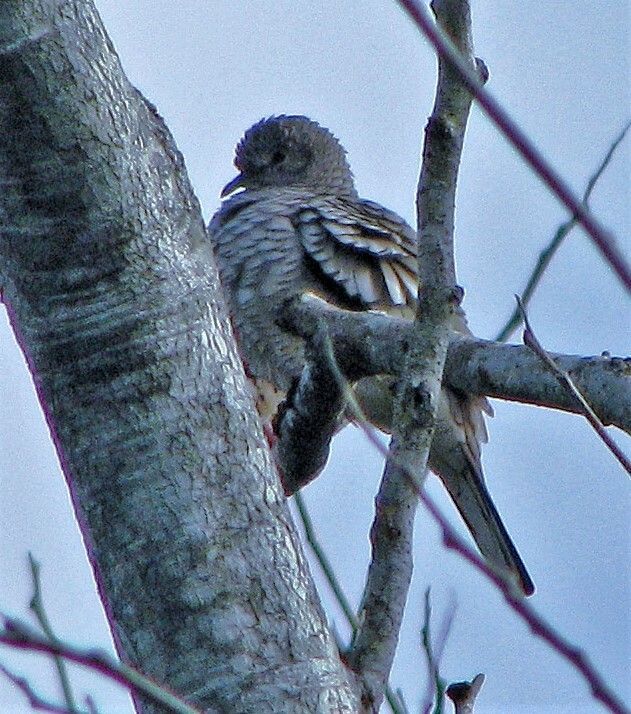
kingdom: Animalia
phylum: Chordata
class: Aves
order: Columbiformes
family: Columbidae
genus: Columbina
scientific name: Columbina squammata
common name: Scaled dove
